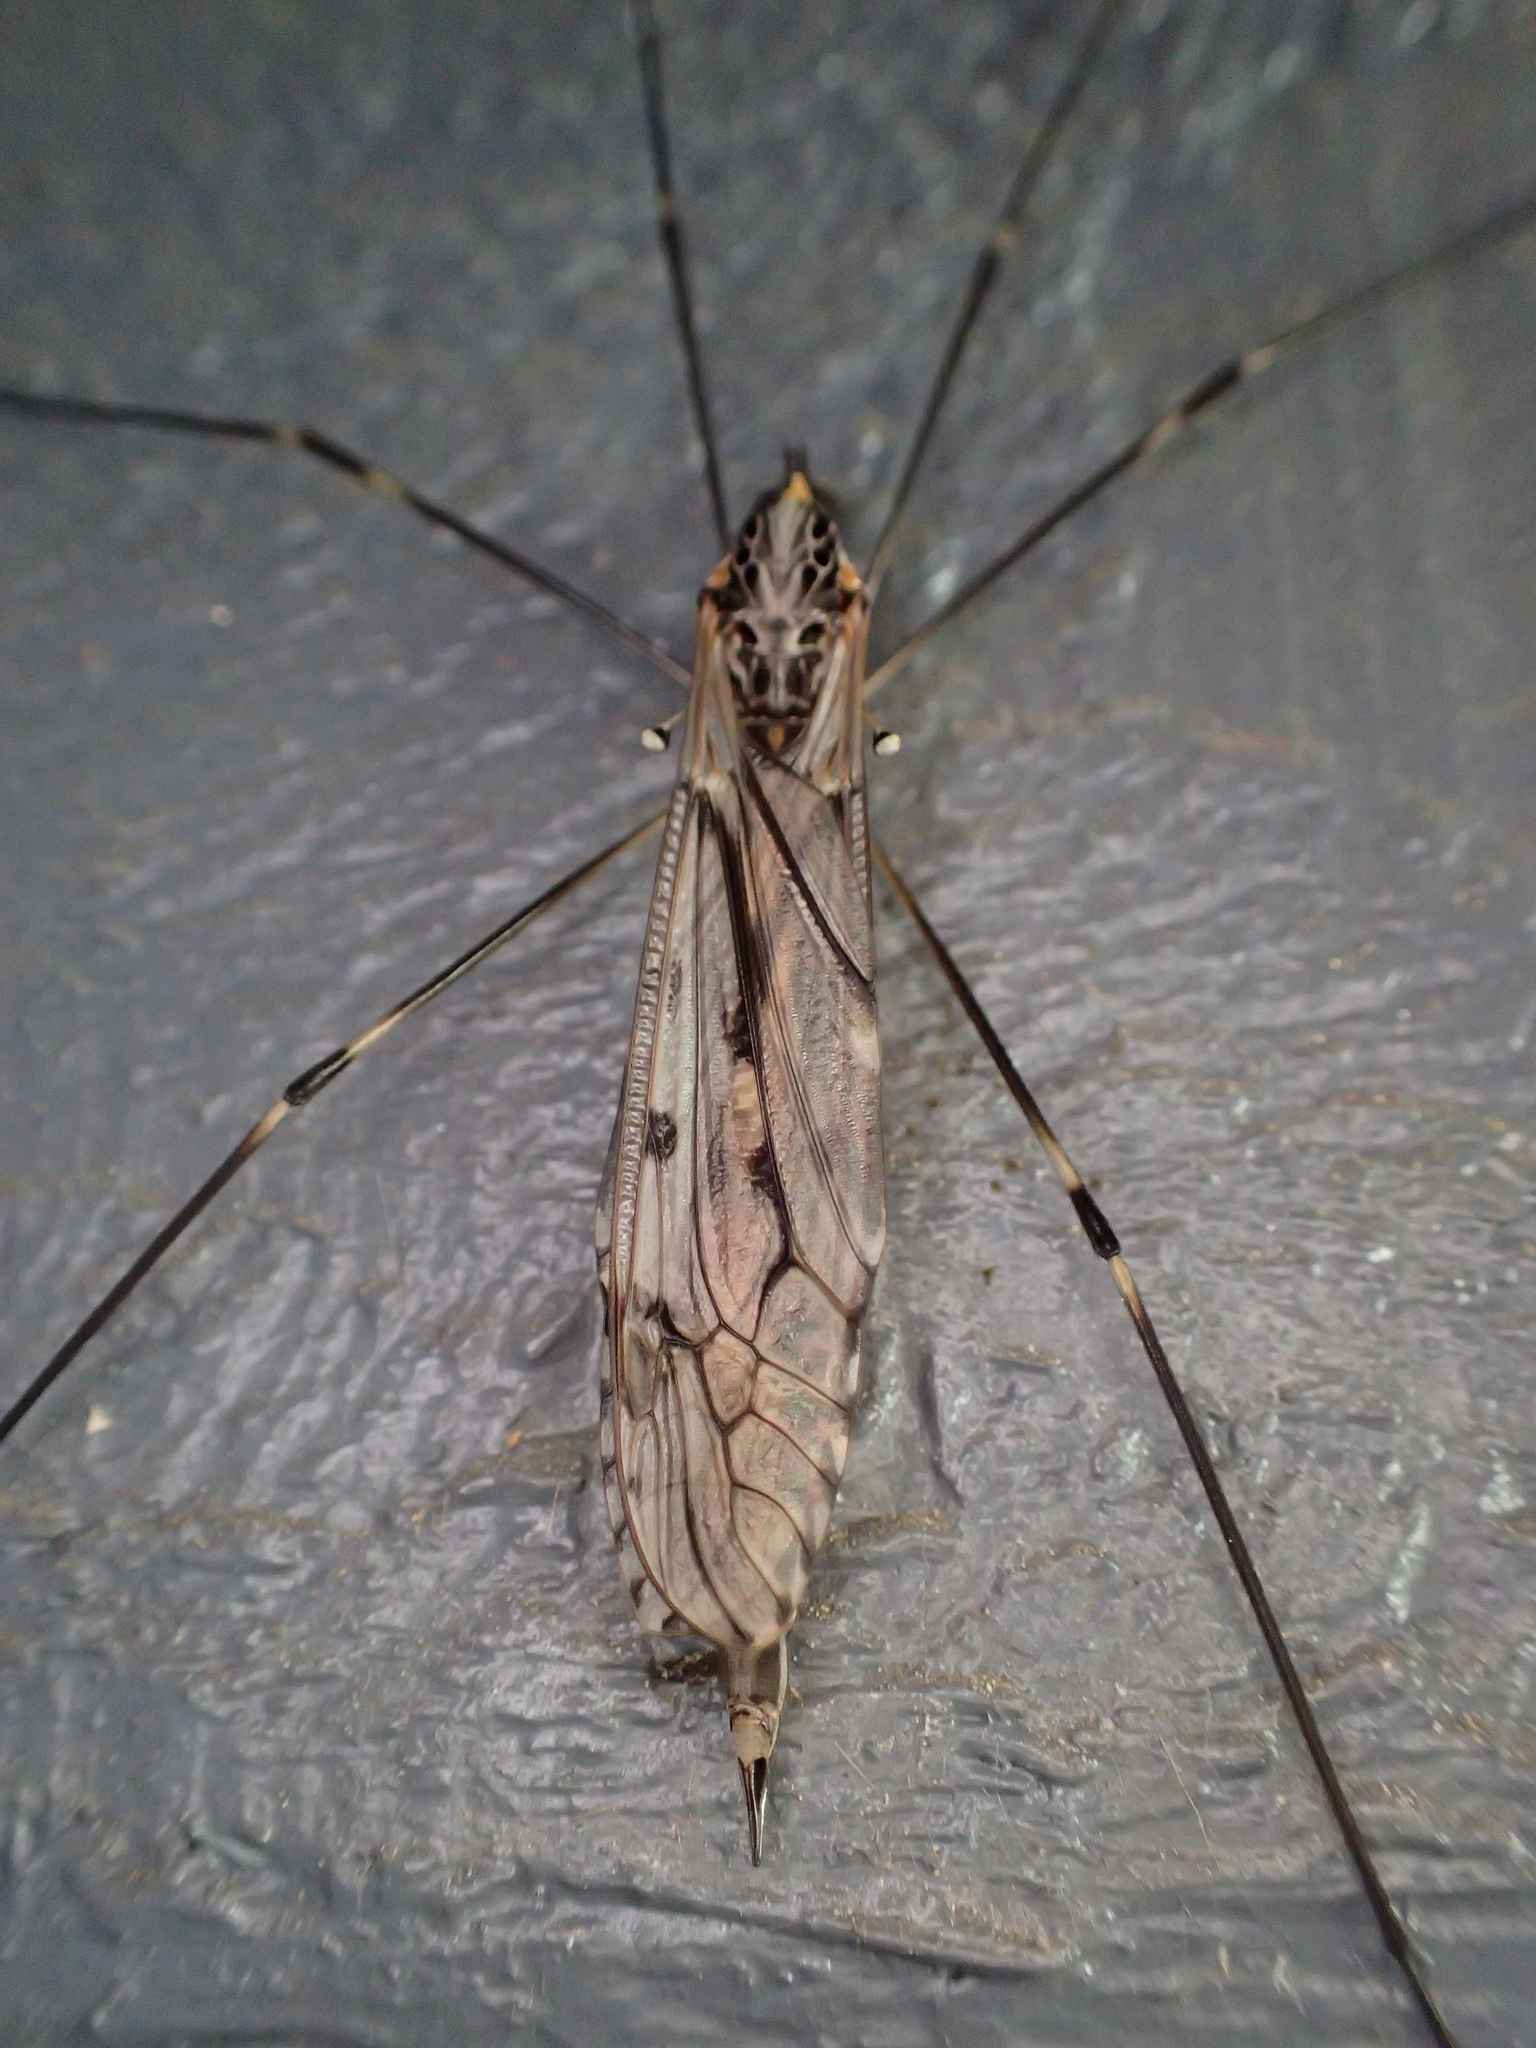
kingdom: Animalia
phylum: Arthropoda
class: Insecta
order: Diptera
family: Tipulidae
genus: Tipula
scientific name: Tipula abdominalis
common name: Giant crane fly
